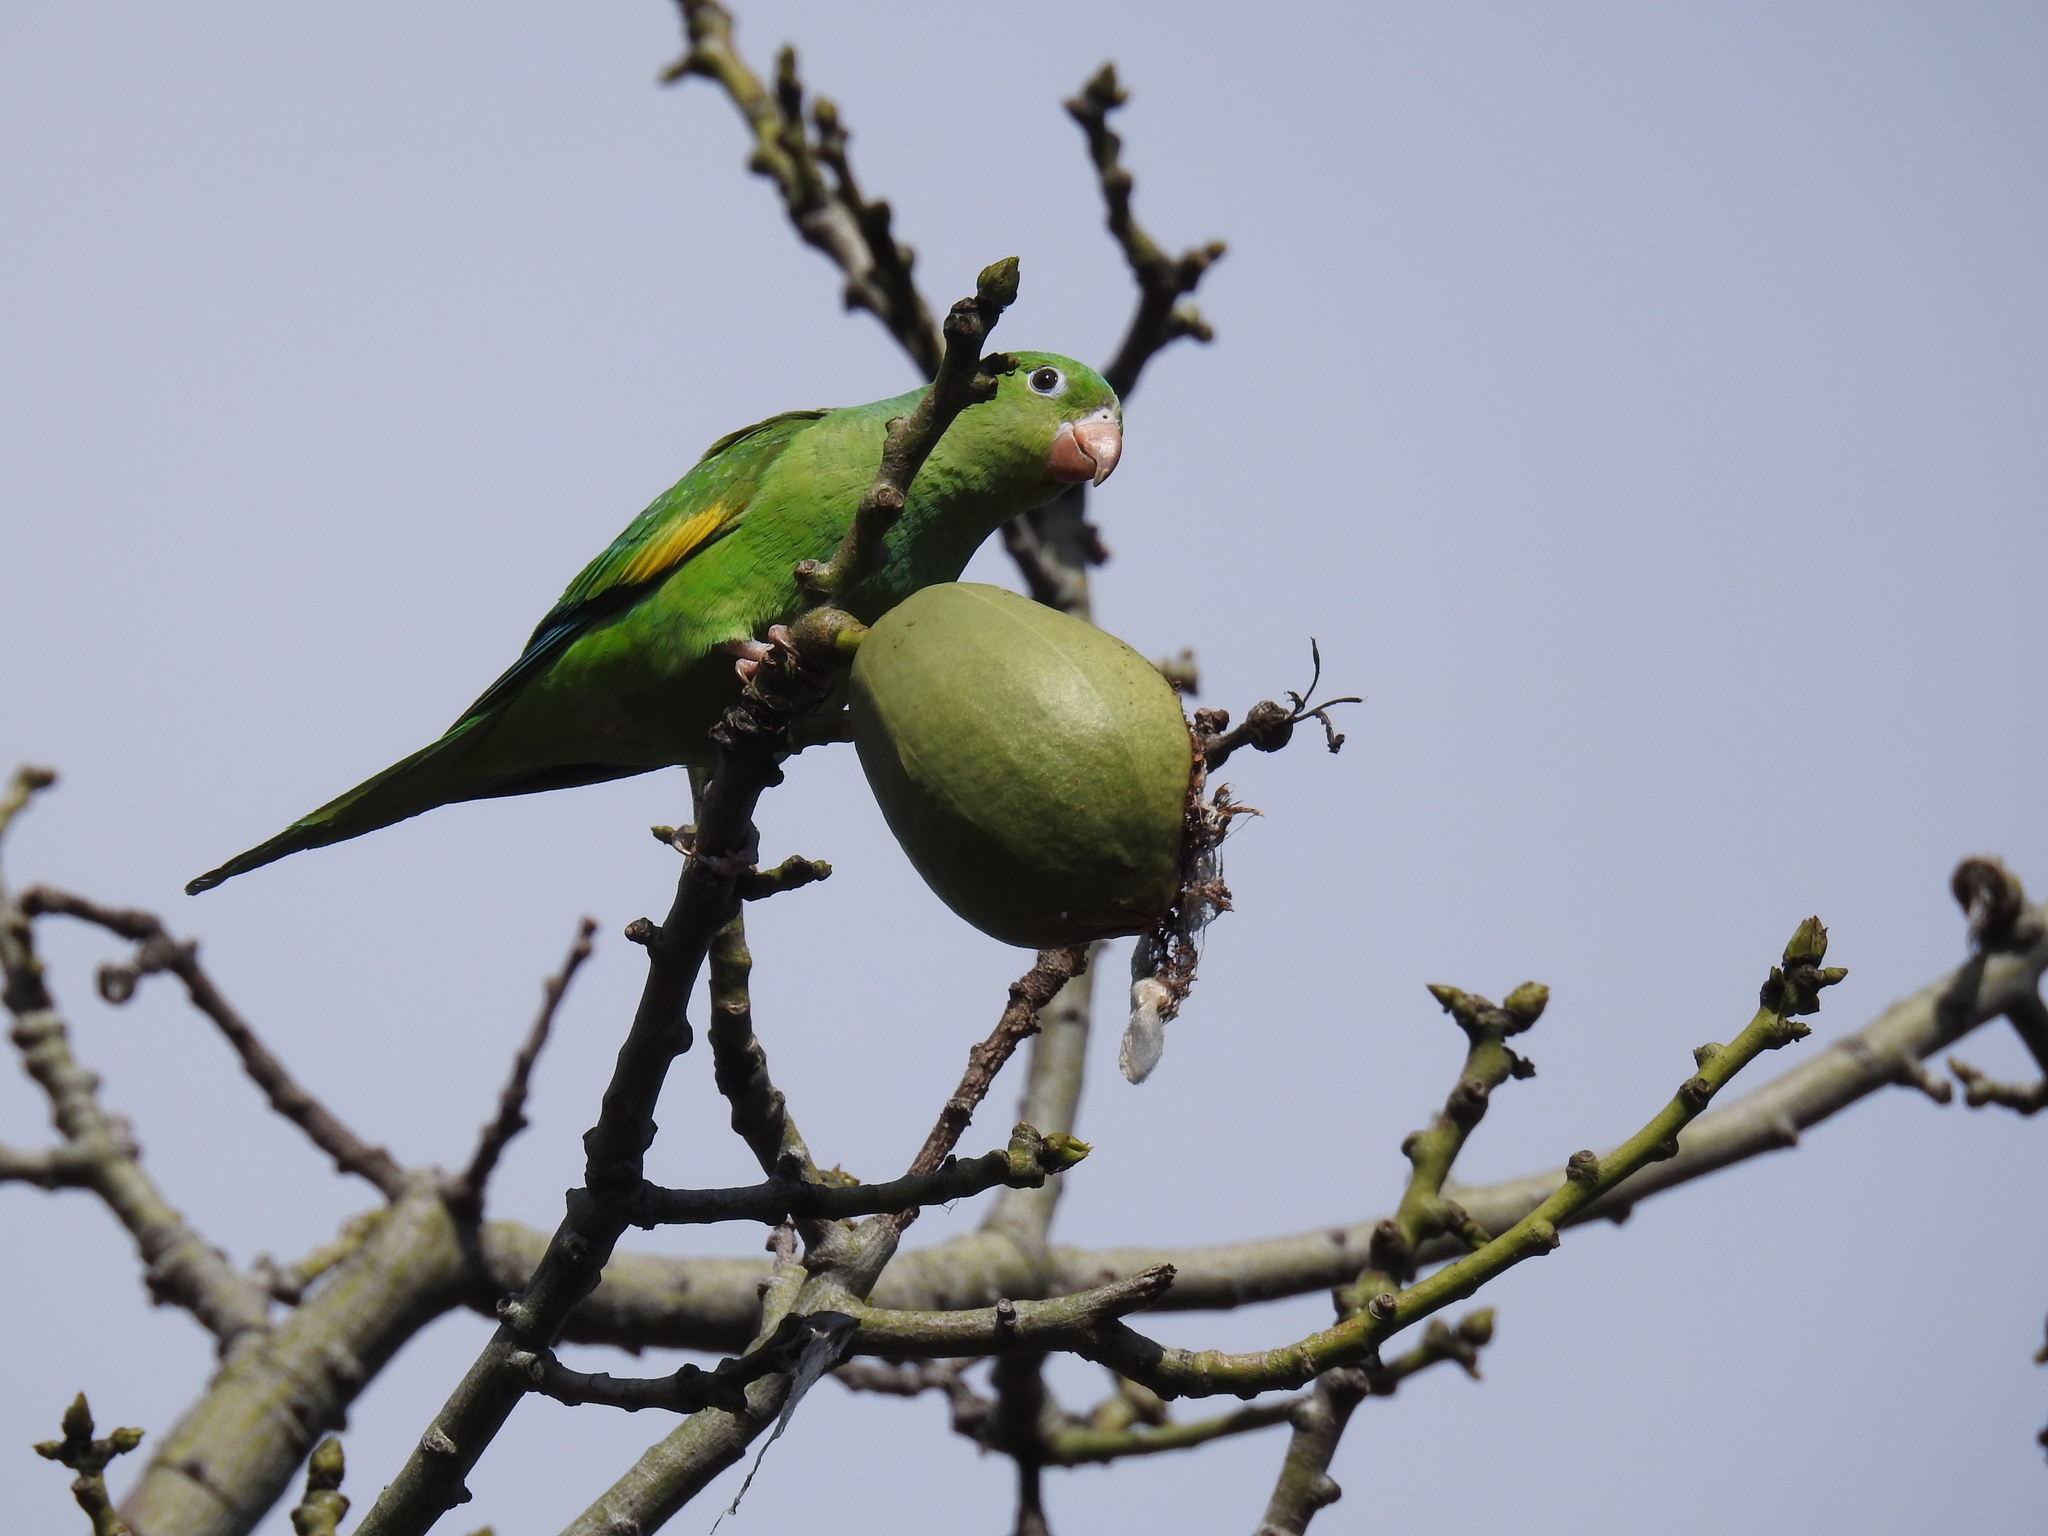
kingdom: Animalia
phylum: Chordata
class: Aves
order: Psittaciformes
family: Psittacidae
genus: Brotogeris
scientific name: Brotogeris chiriri
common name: Yellow-chevroned parakeet
